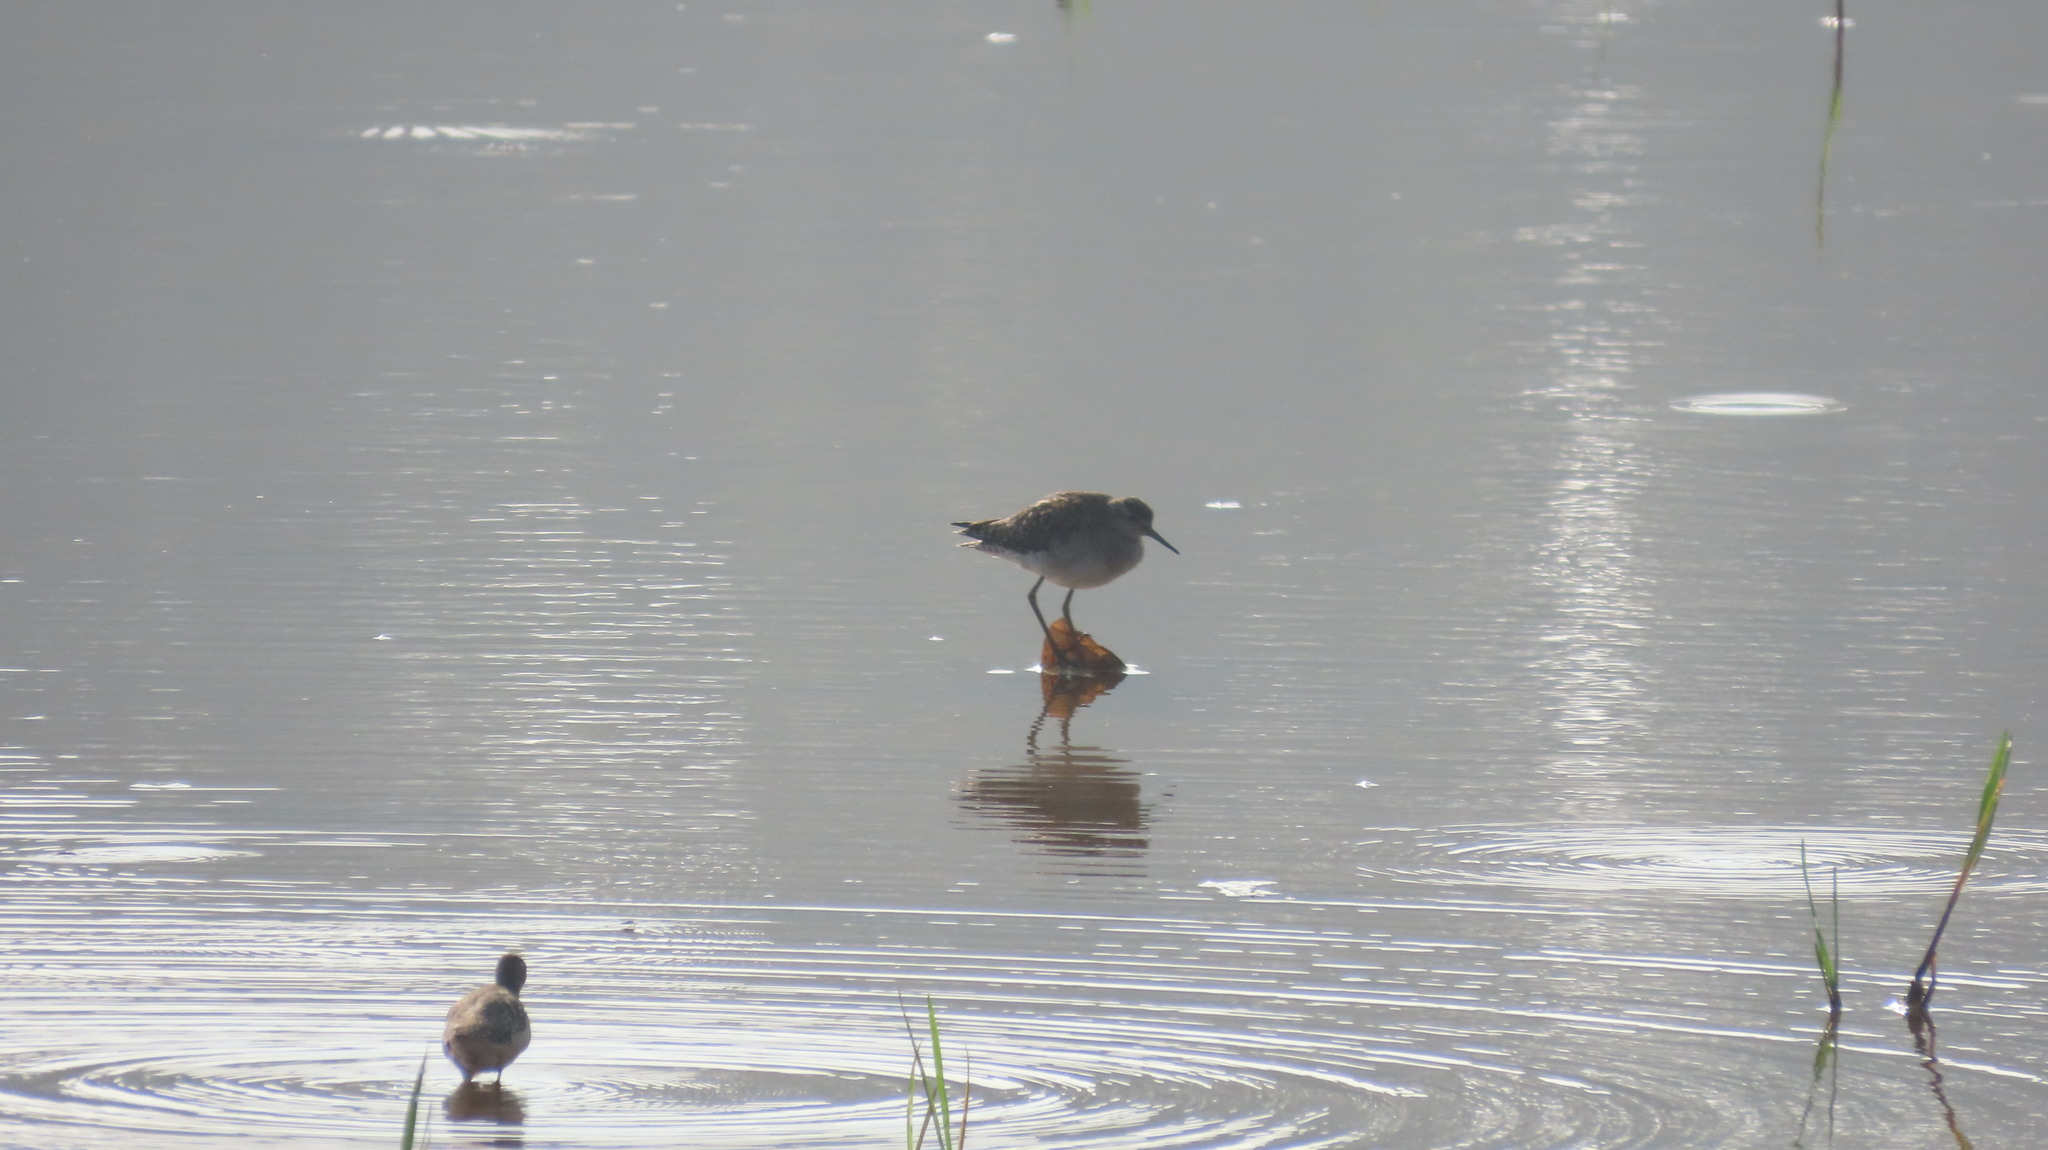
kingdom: Animalia
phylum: Chordata
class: Aves
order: Charadriiformes
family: Scolopacidae
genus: Tringa
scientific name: Tringa glareola
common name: Wood sandpiper
